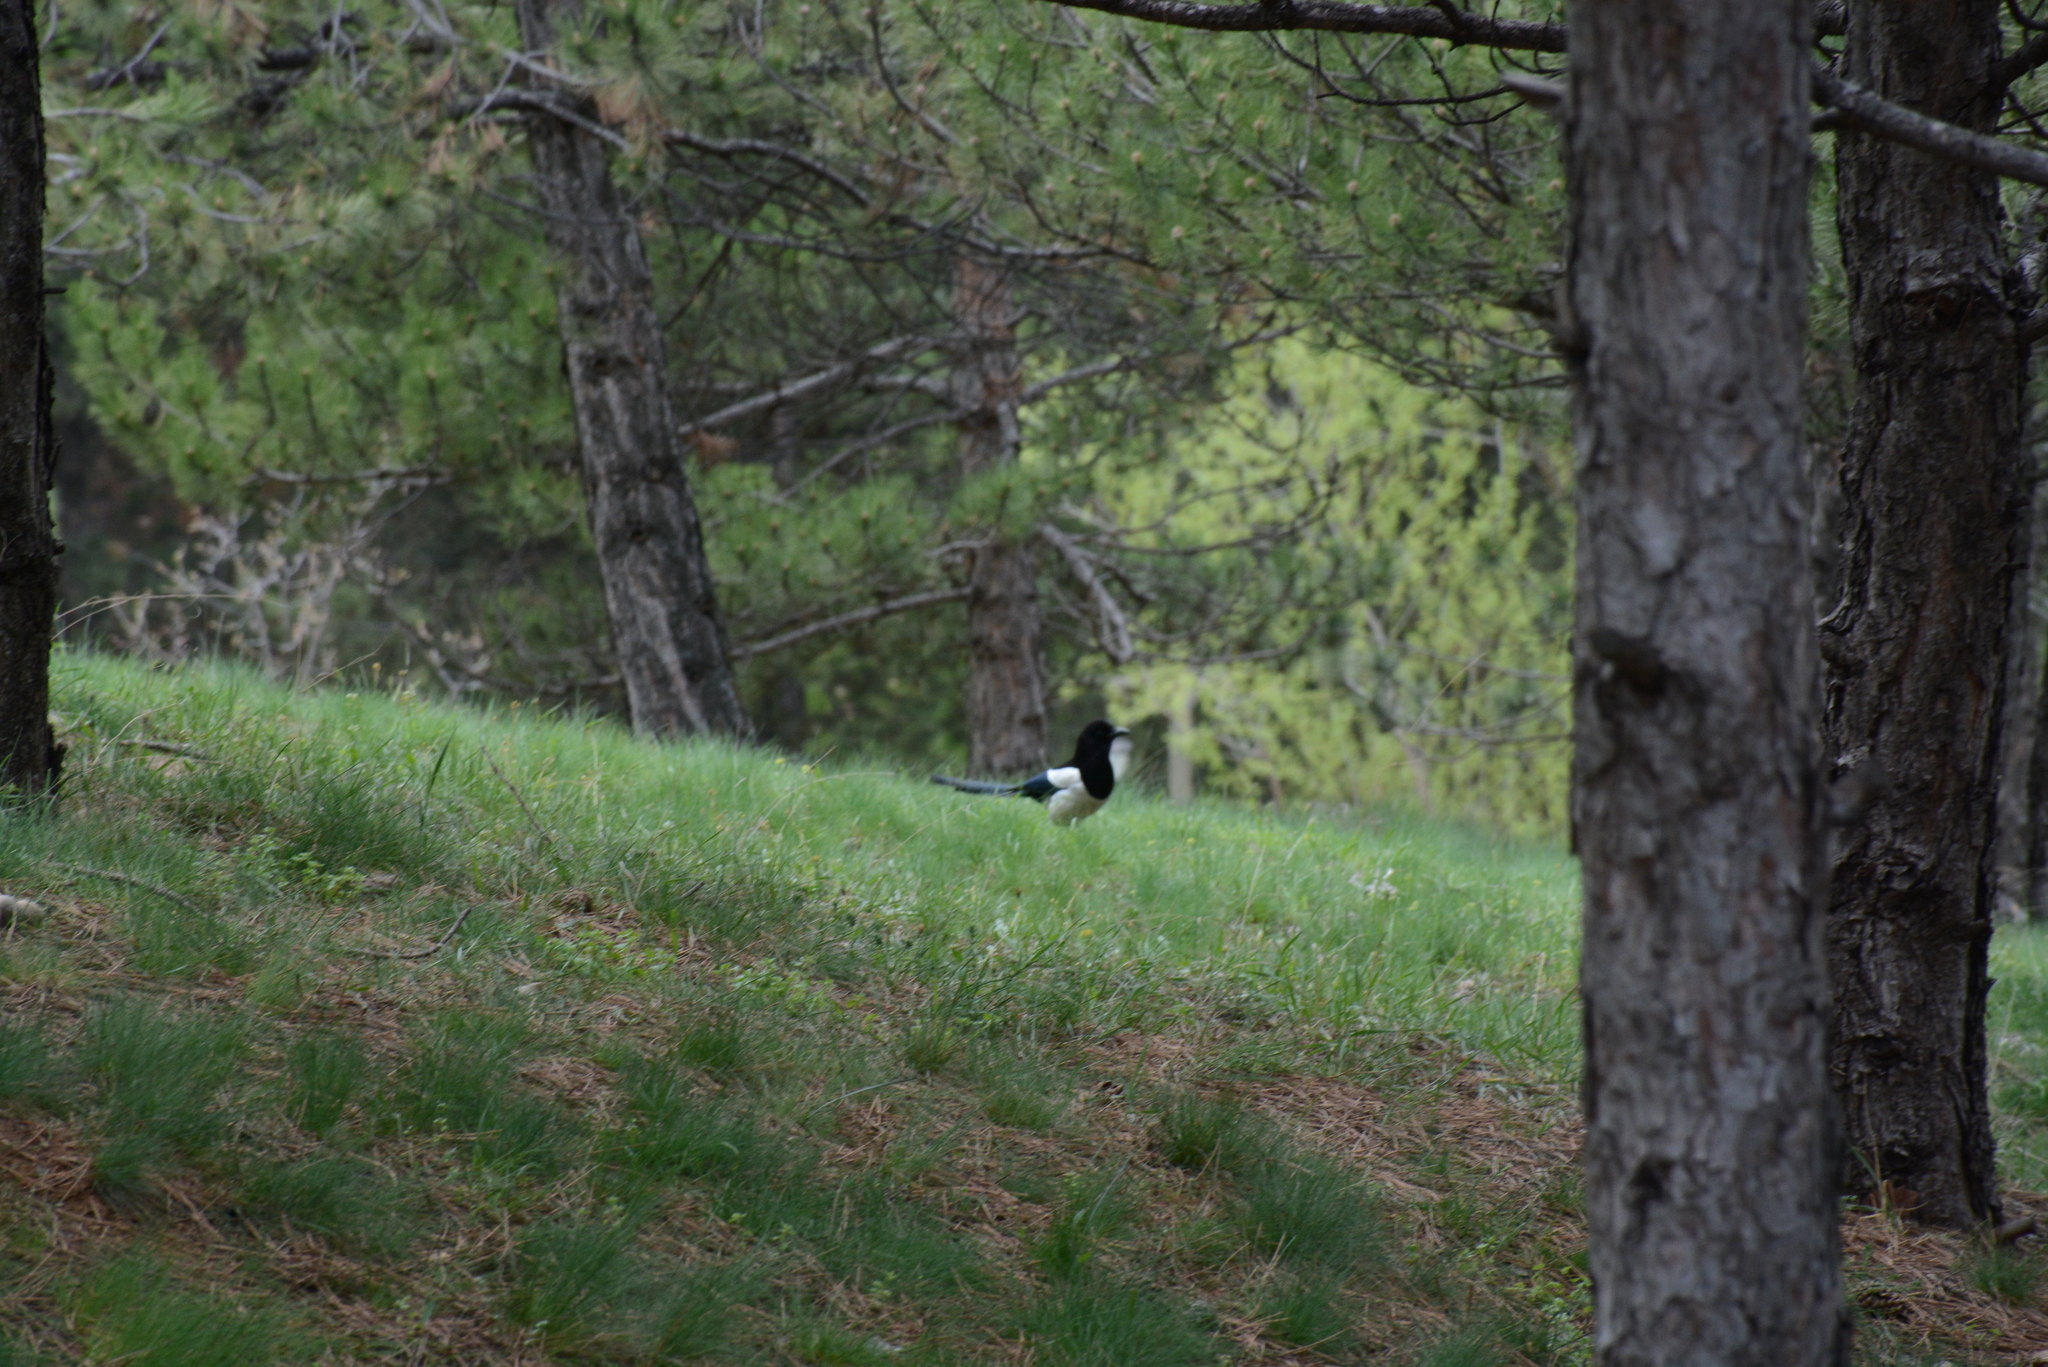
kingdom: Animalia
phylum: Chordata
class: Aves
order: Passeriformes
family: Corvidae
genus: Pica
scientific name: Pica pica
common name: Eurasian magpie
